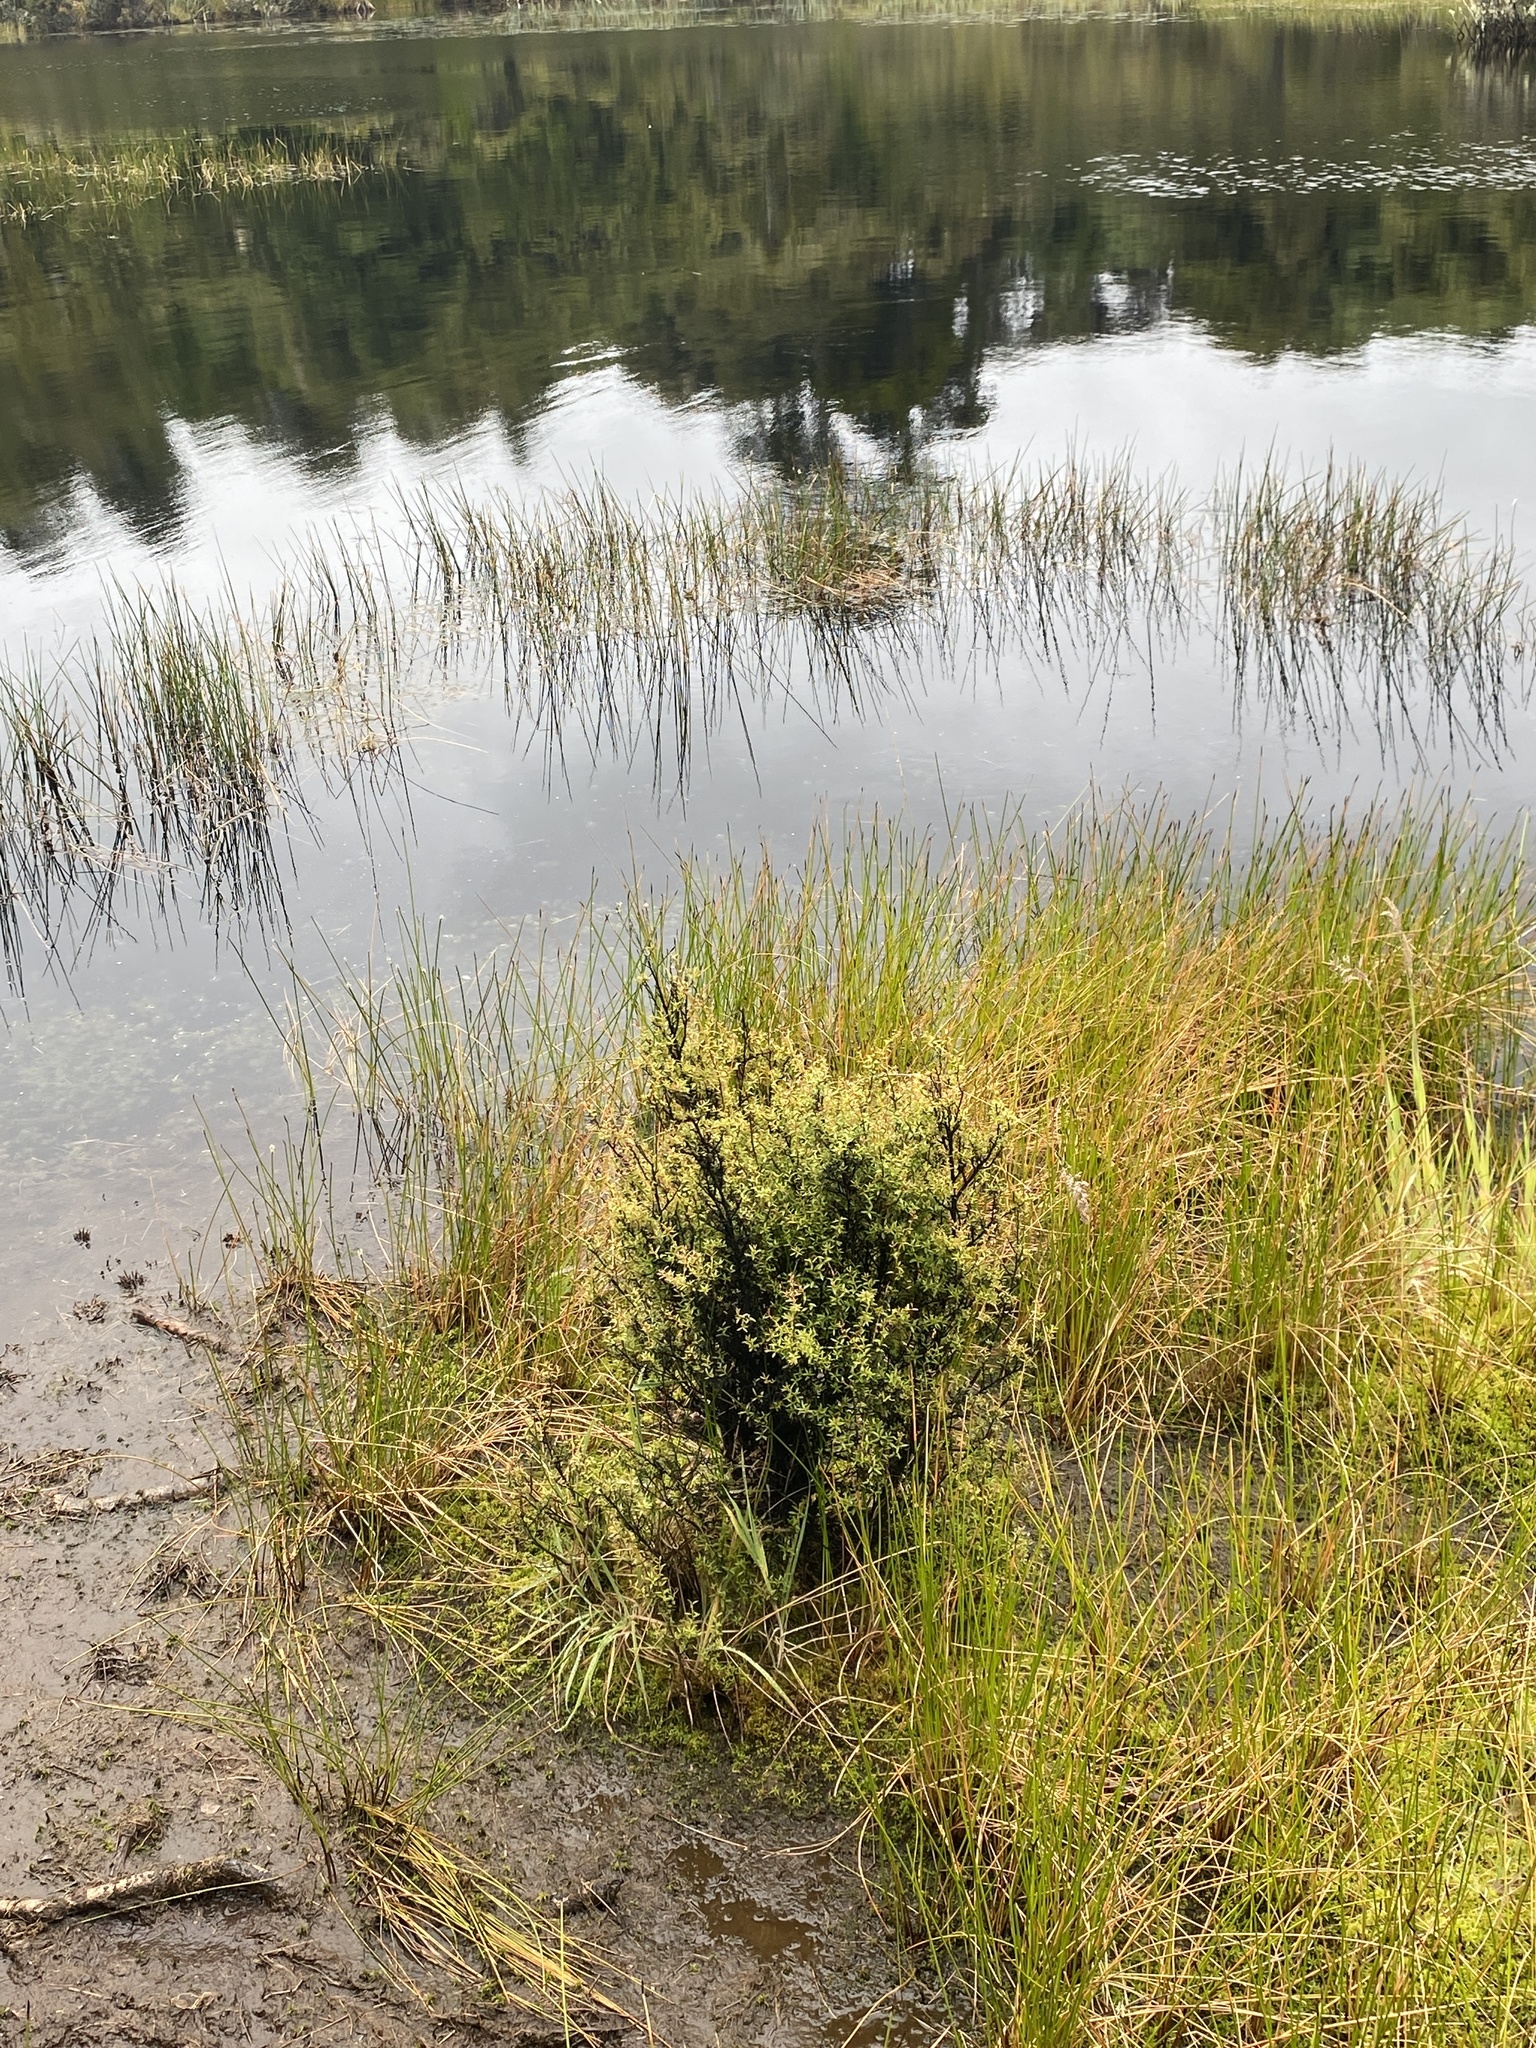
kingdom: Plantae
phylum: Tracheophyta
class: Magnoliopsida
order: Myrtales
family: Myrtaceae
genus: Leptospermum
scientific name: Leptospermum scoparium
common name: Broom tea-tree
